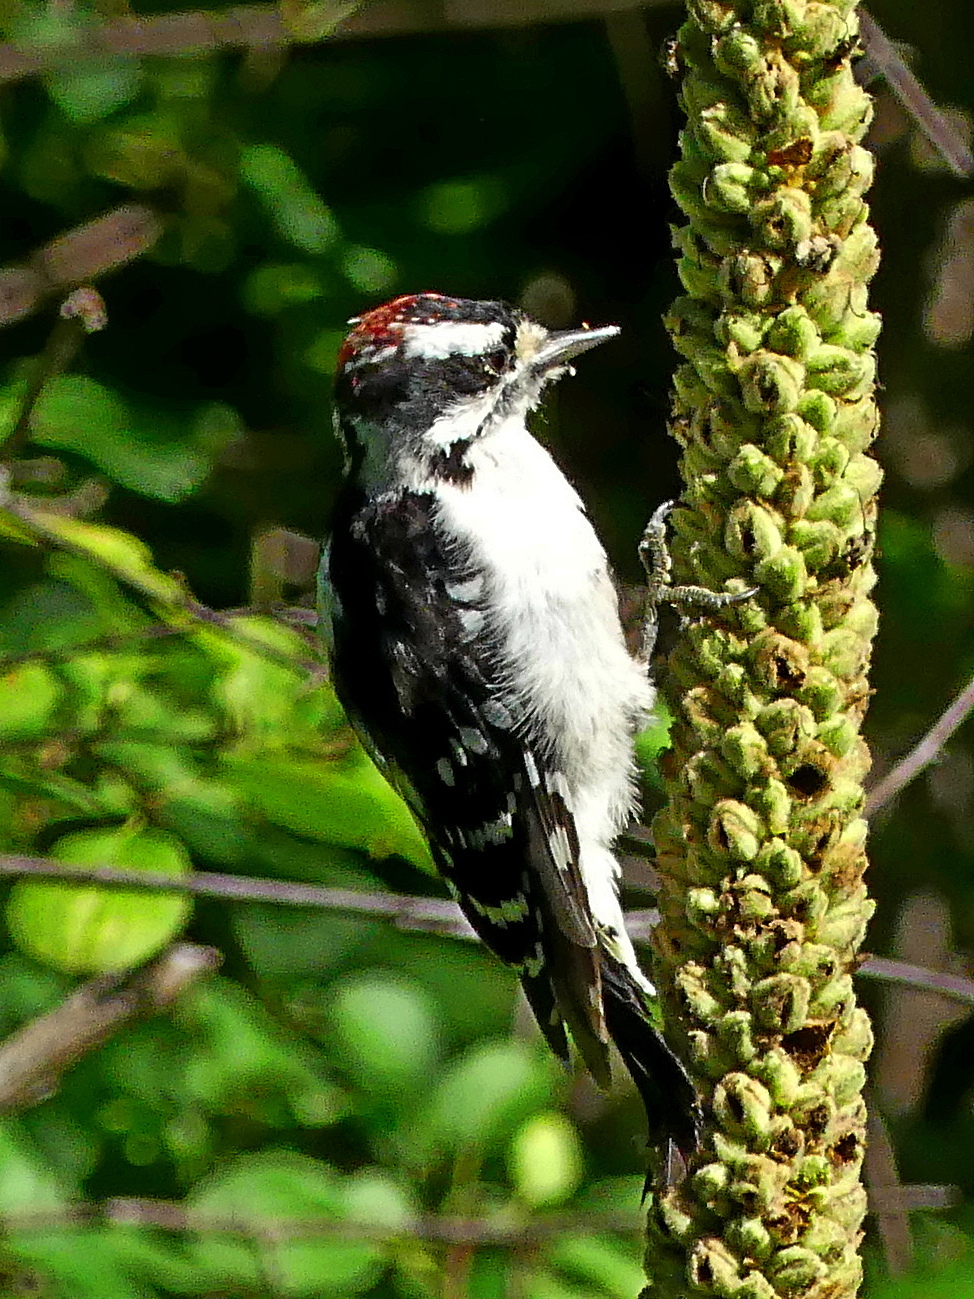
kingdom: Animalia
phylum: Chordata
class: Aves
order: Piciformes
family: Picidae
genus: Dryobates
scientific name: Dryobates pubescens
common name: Downy woodpecker
